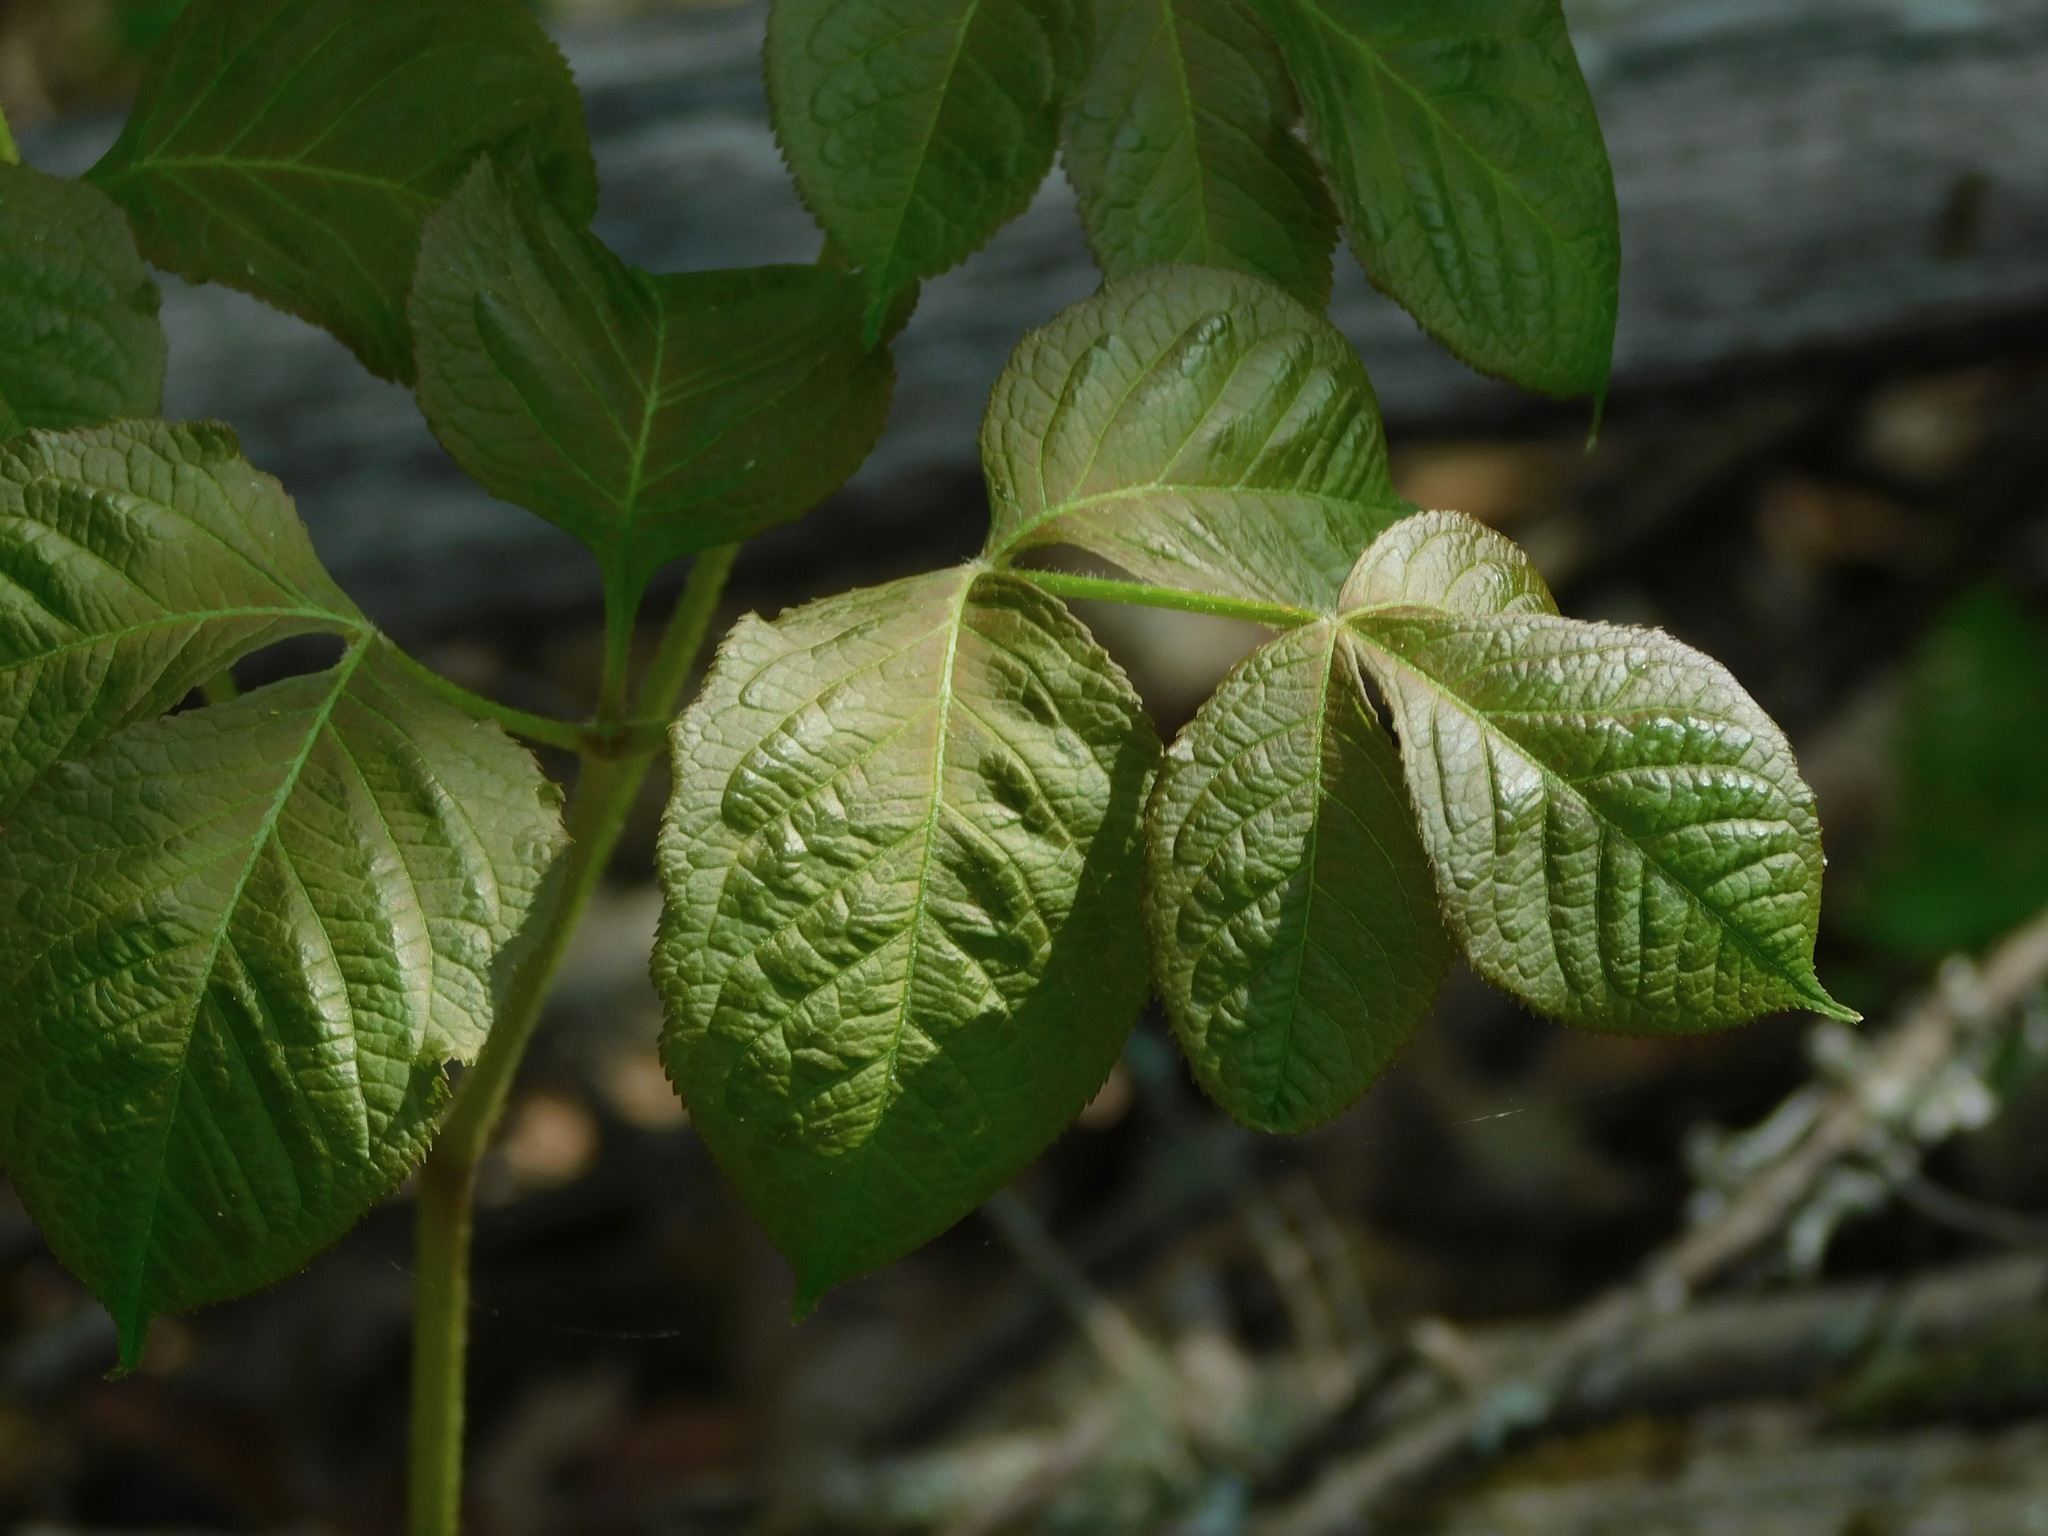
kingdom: Plantae
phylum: Tracheophyta
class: Magnoliopsida
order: Apiales
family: Araliaceae
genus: Aralia
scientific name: Aralia nudicaulis
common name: Wild sarsaparilla
